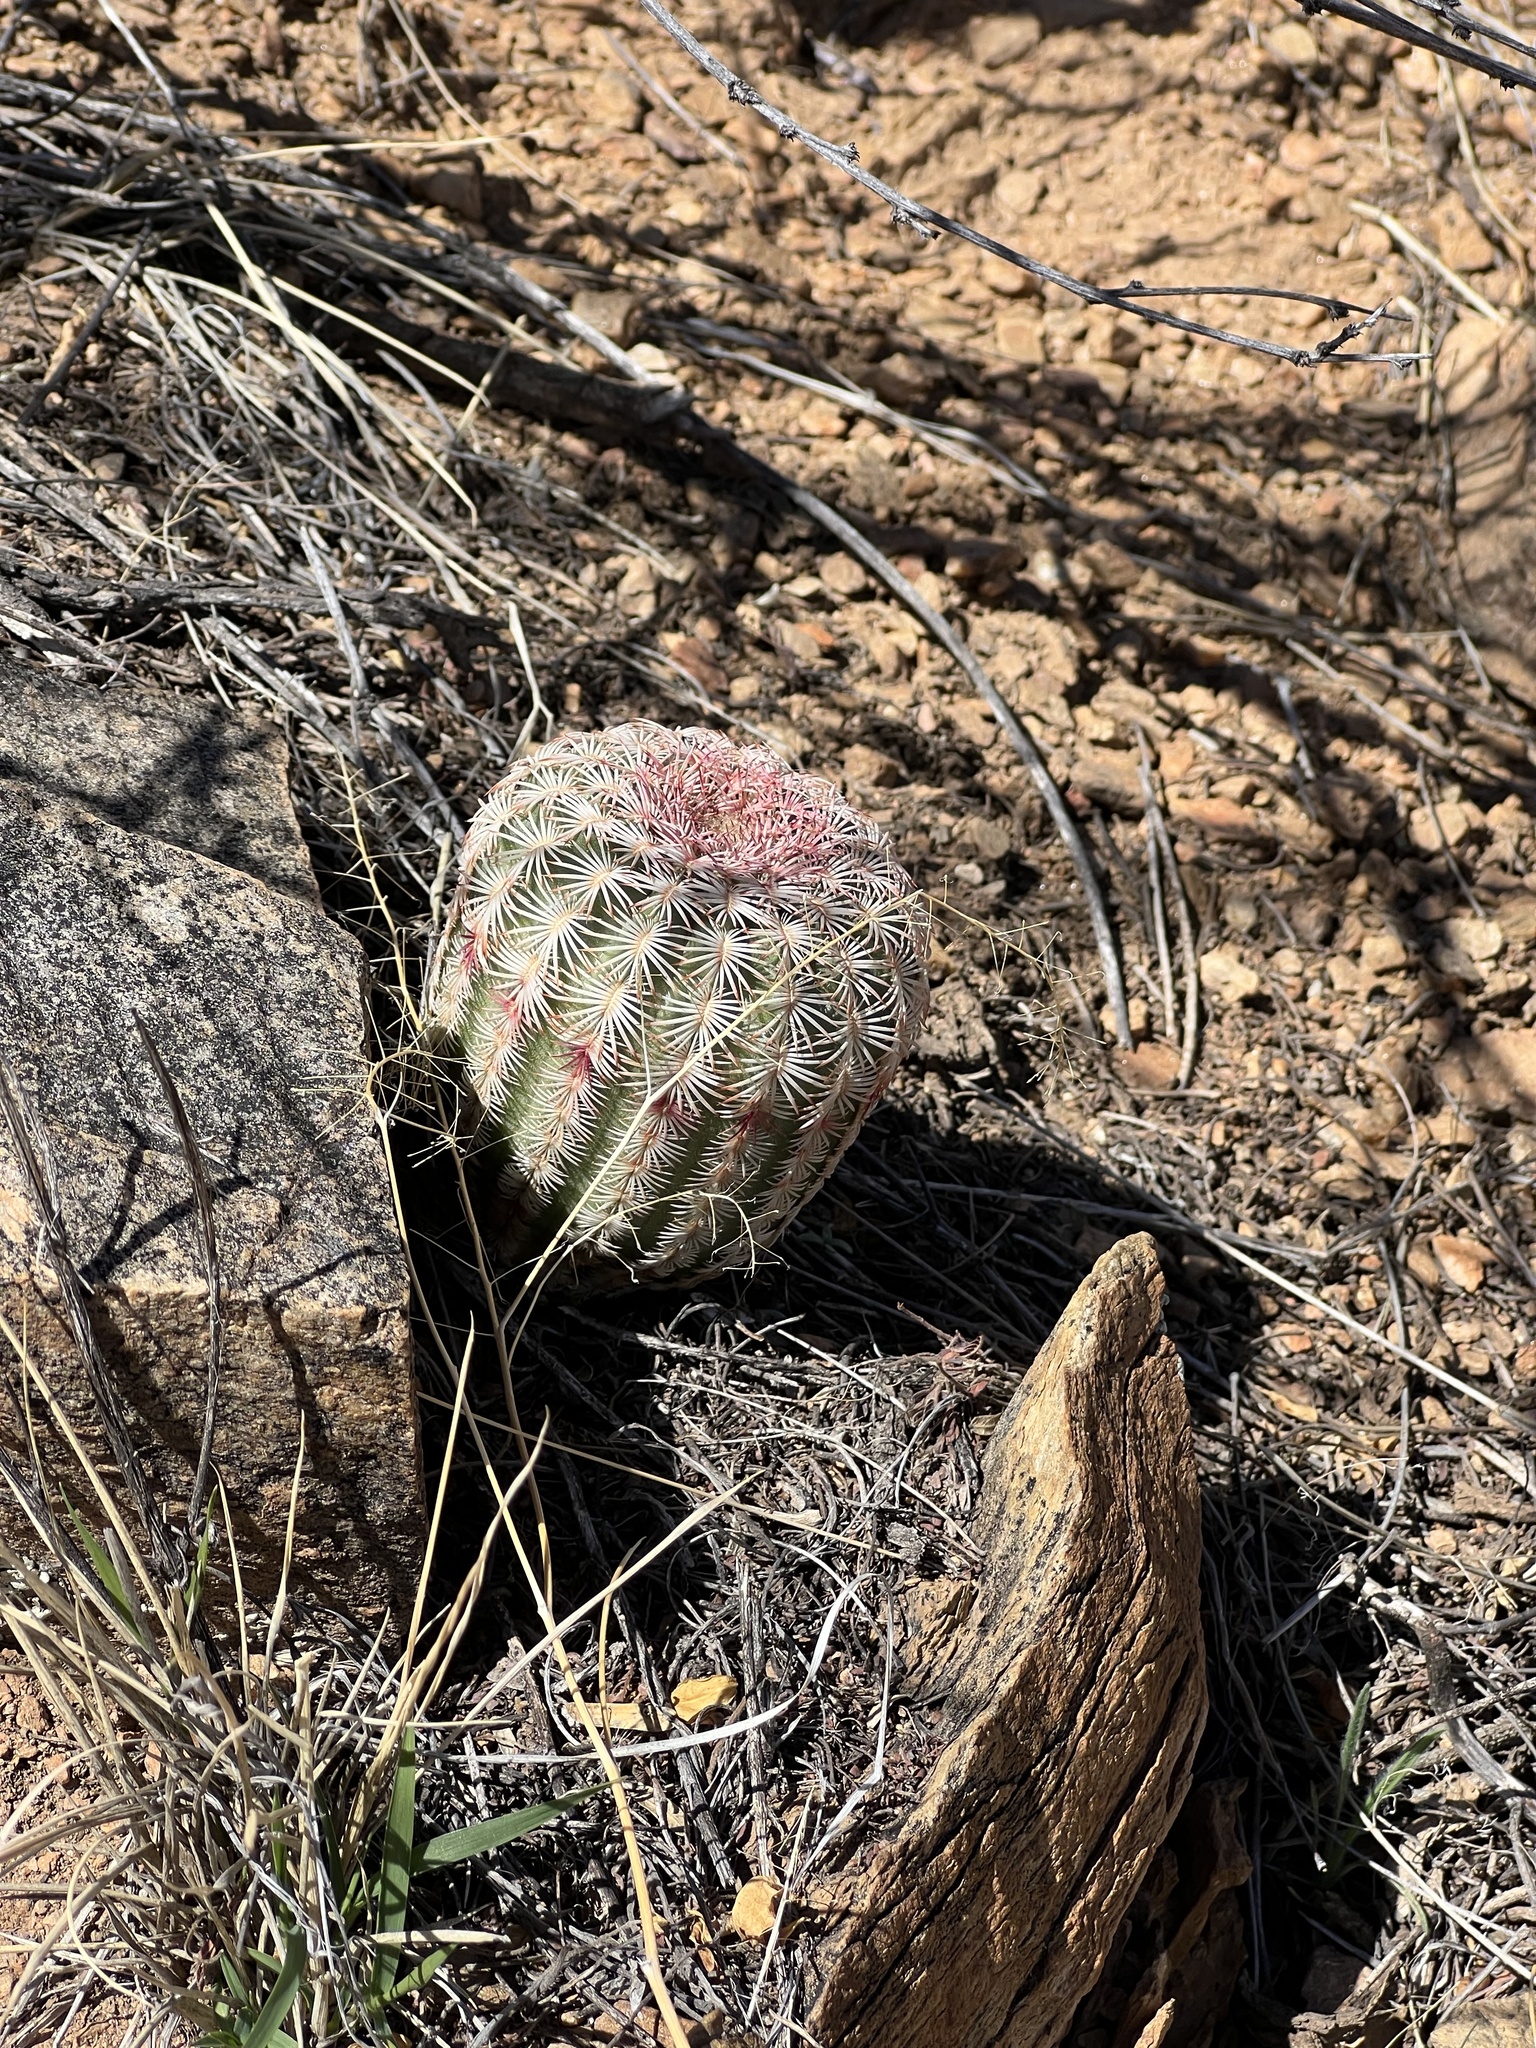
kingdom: Plantae
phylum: Tracheophyta
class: Magnoliopsida
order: Caryophyllales
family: Cactaceae
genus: Echinocereus
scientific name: Echinocereus rigidissimus
